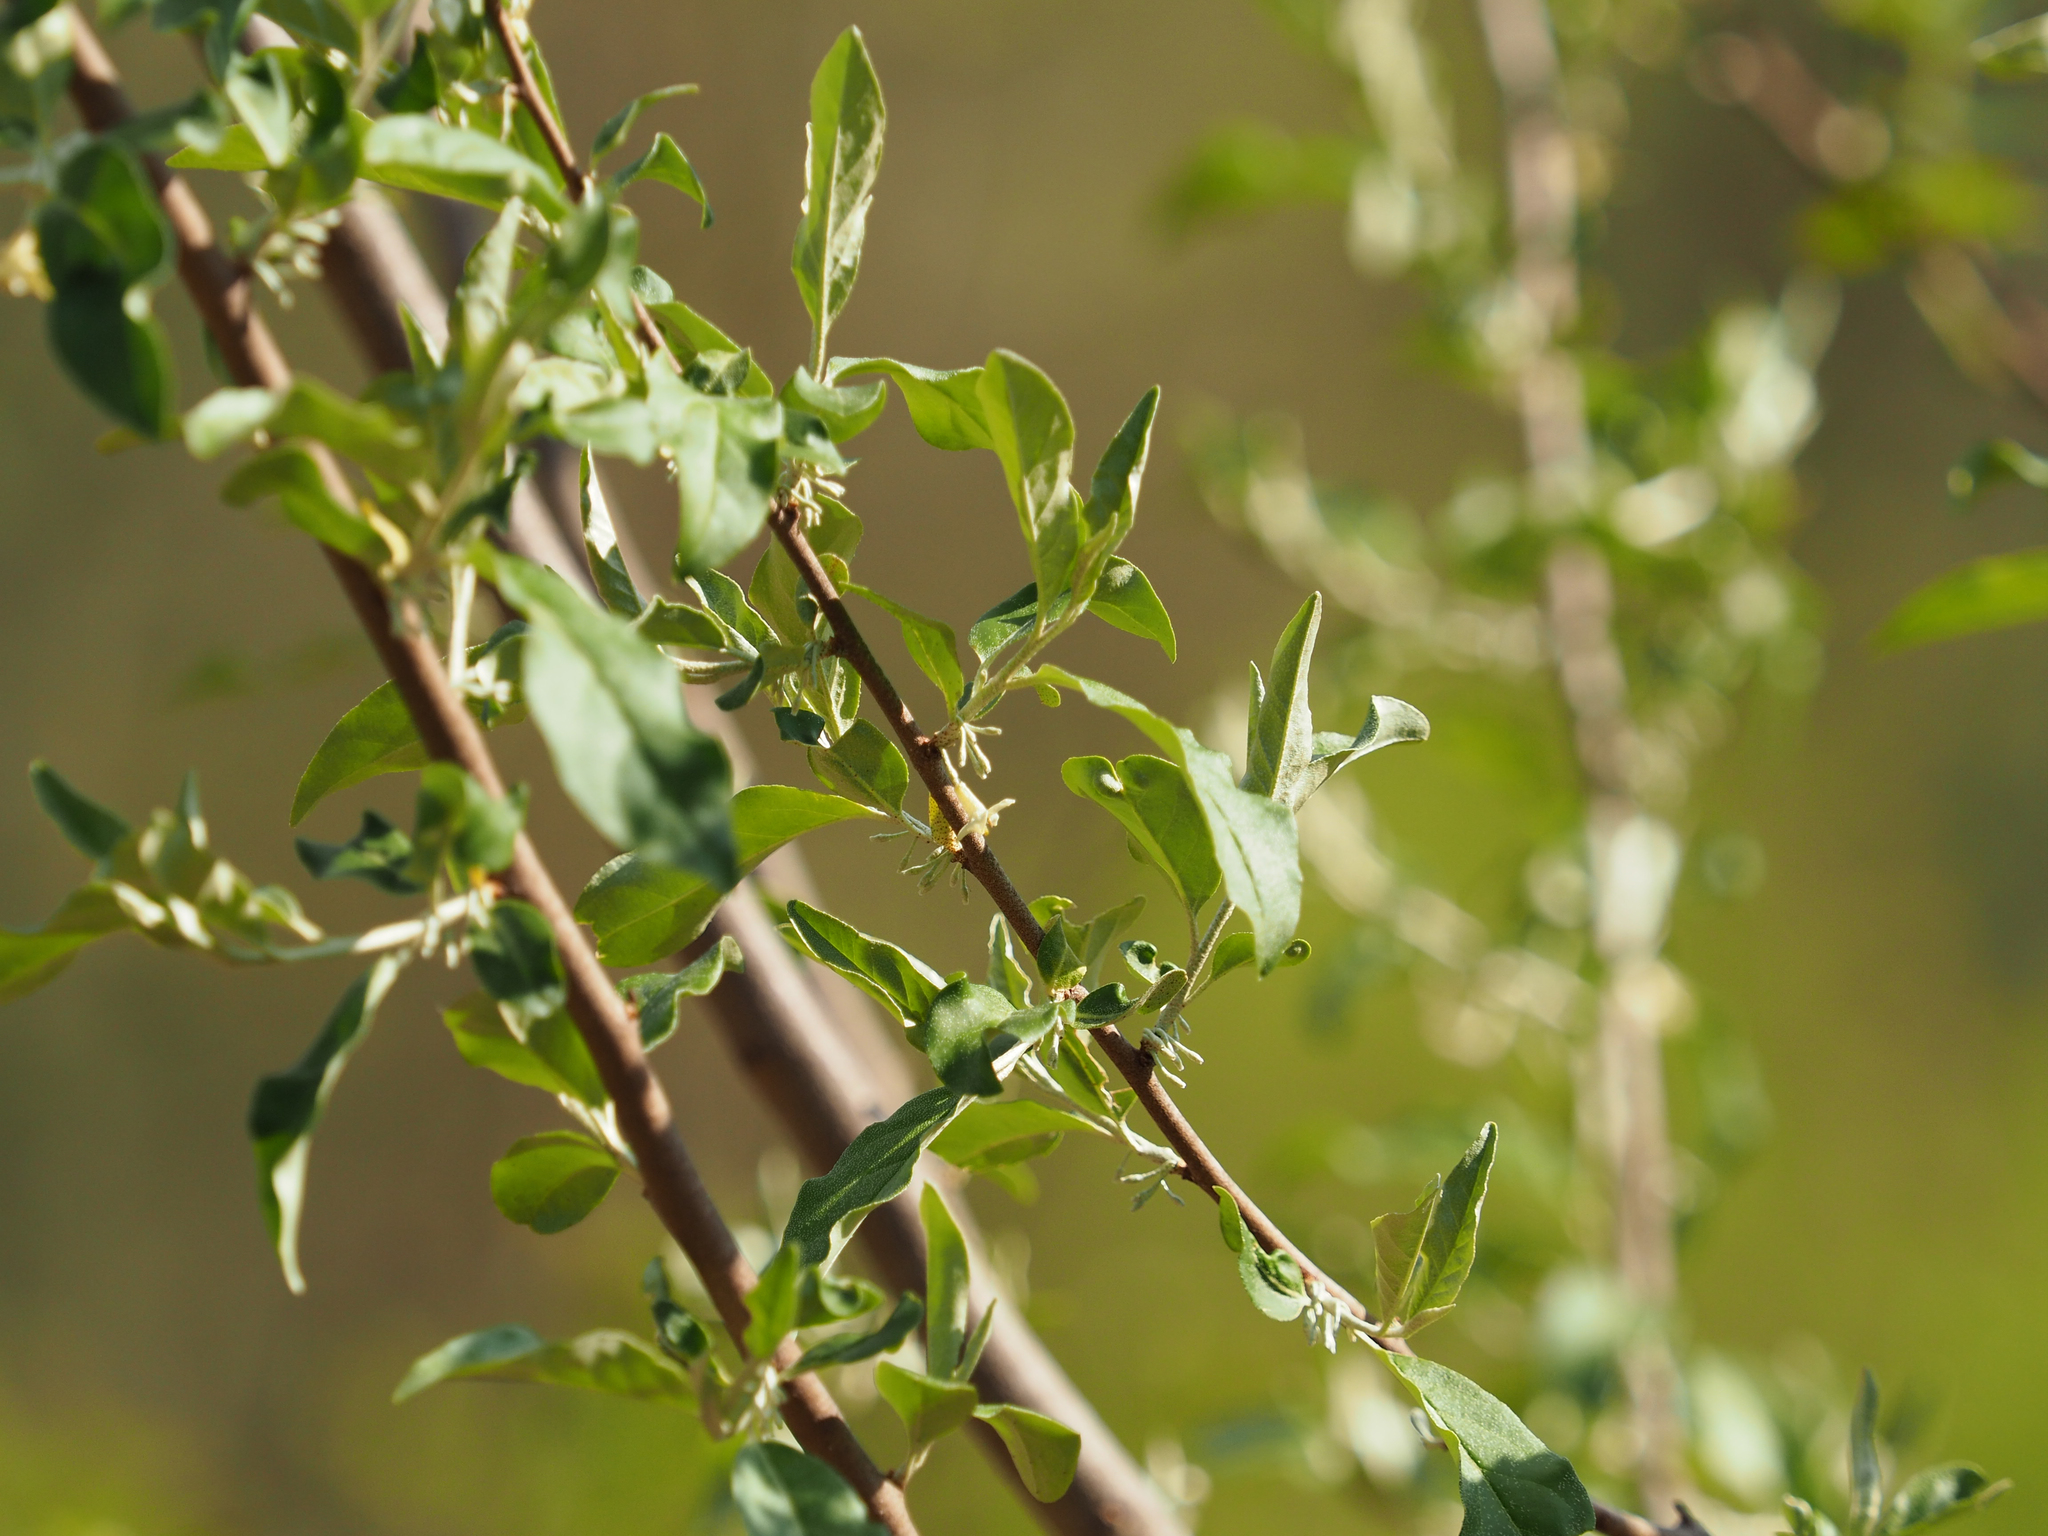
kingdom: Plantae
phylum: Tracheophyta
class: Magnoliopsida
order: Rosales
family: Elaeagnaceae
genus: Elaeagnus
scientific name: Elaeagnus umbellata
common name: Autumn olive
